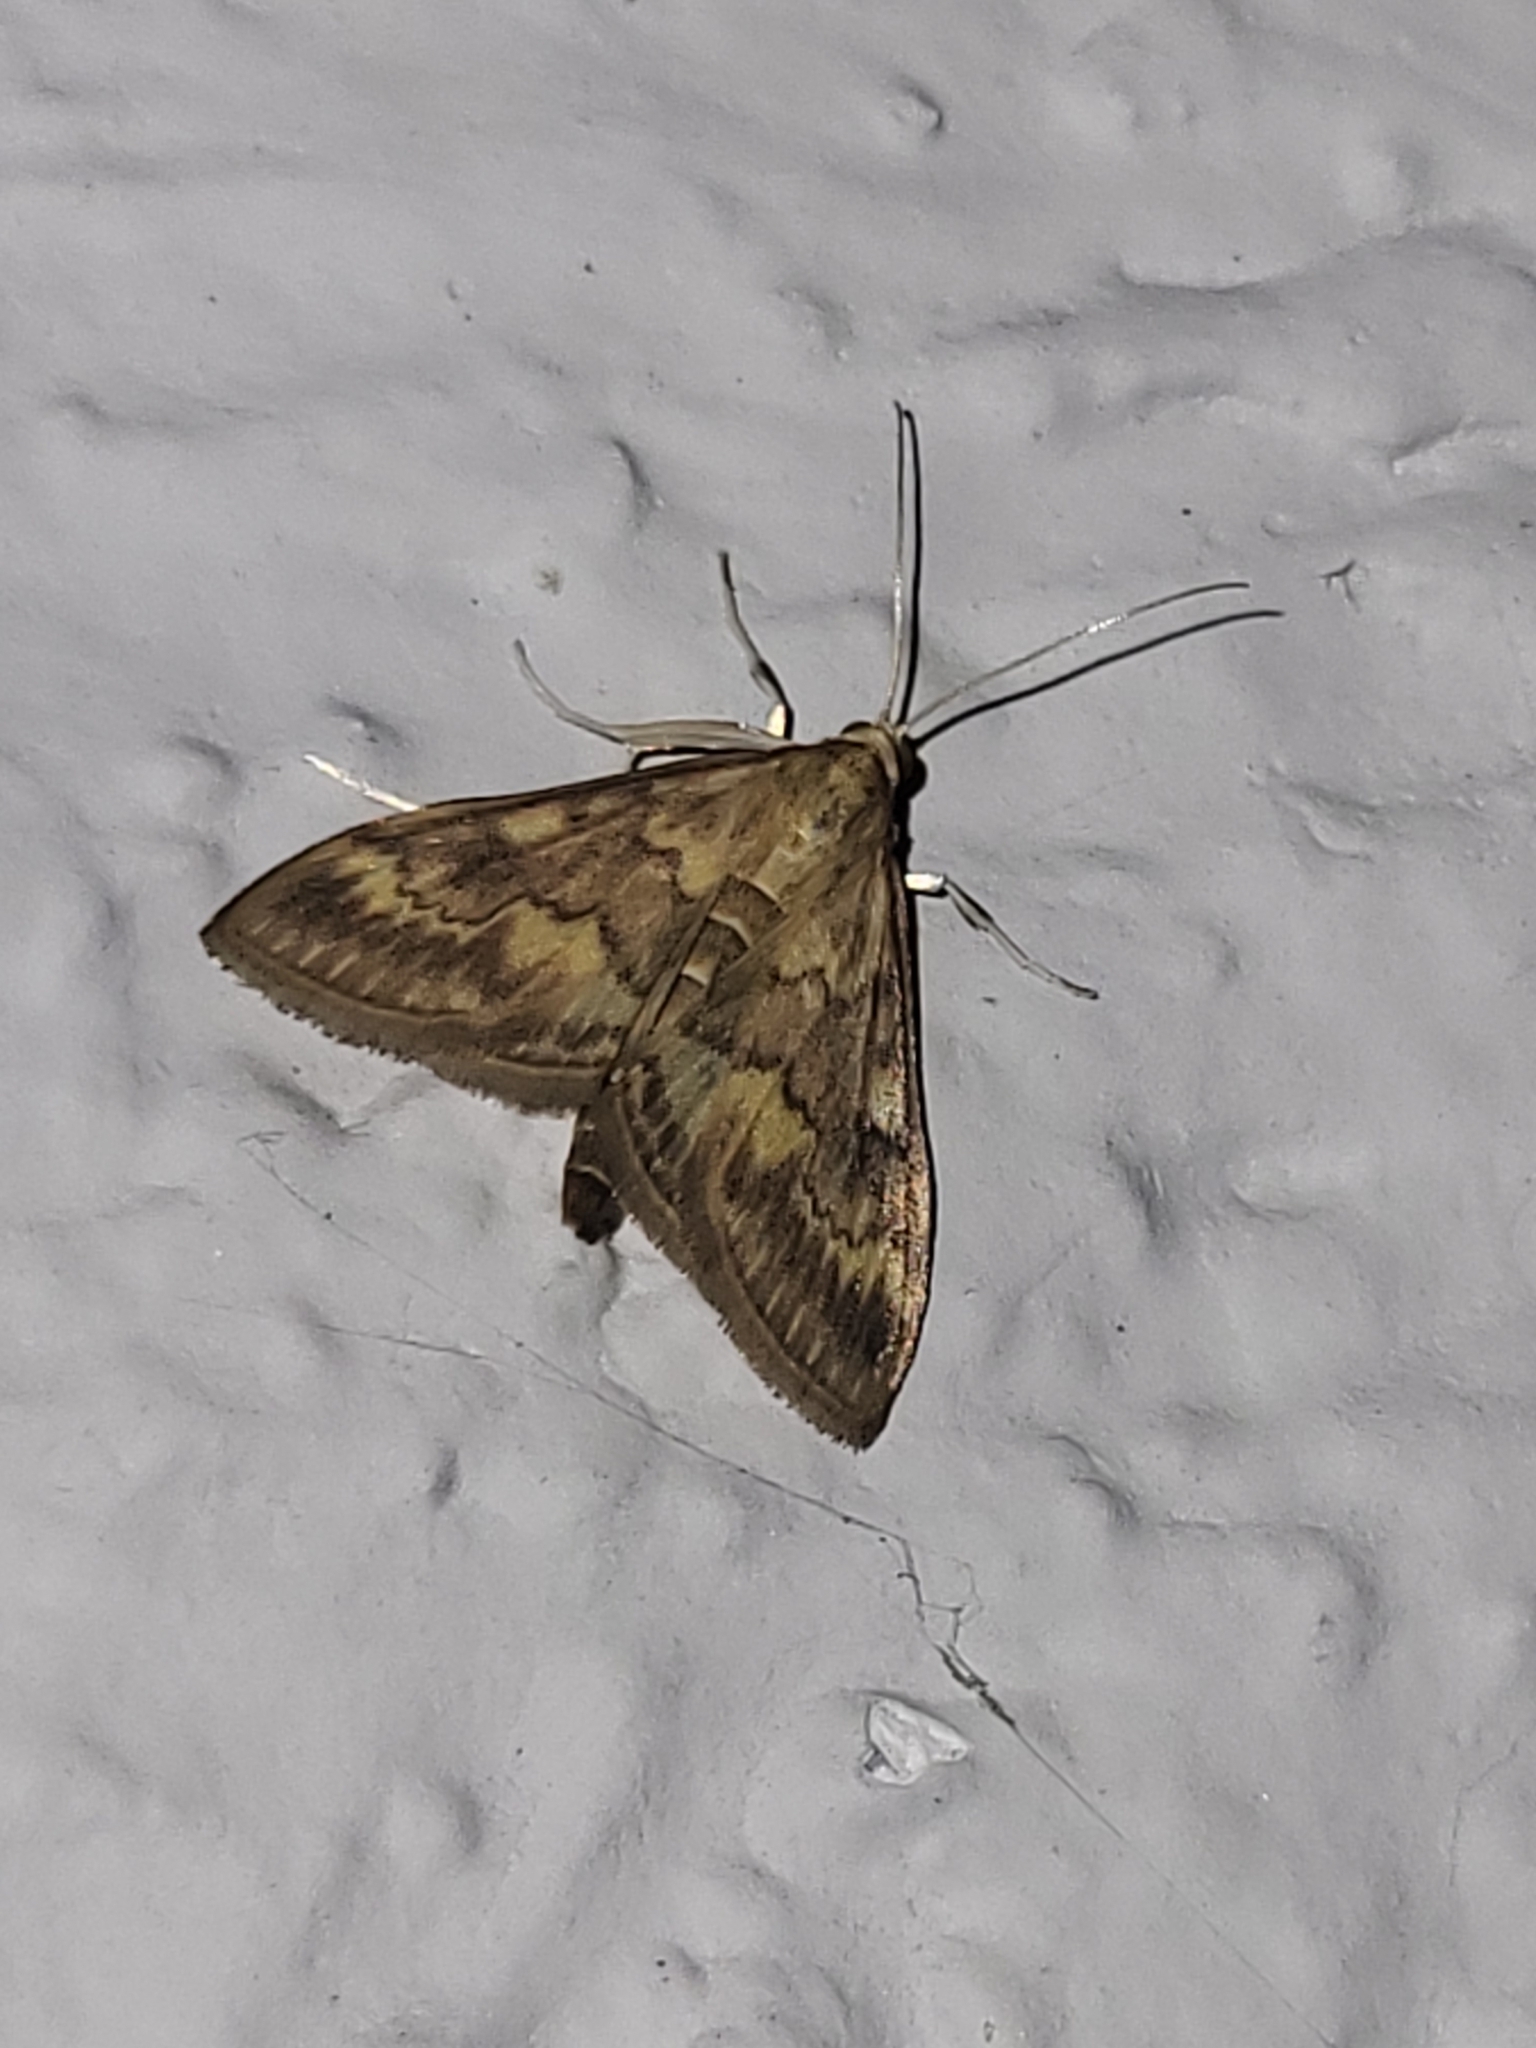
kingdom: Animalia
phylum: Arthropoda
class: Insecta
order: Lepidoptera
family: Crambidae
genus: Ostrinia
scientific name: Ostrinia nubilalis
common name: European corn borer
